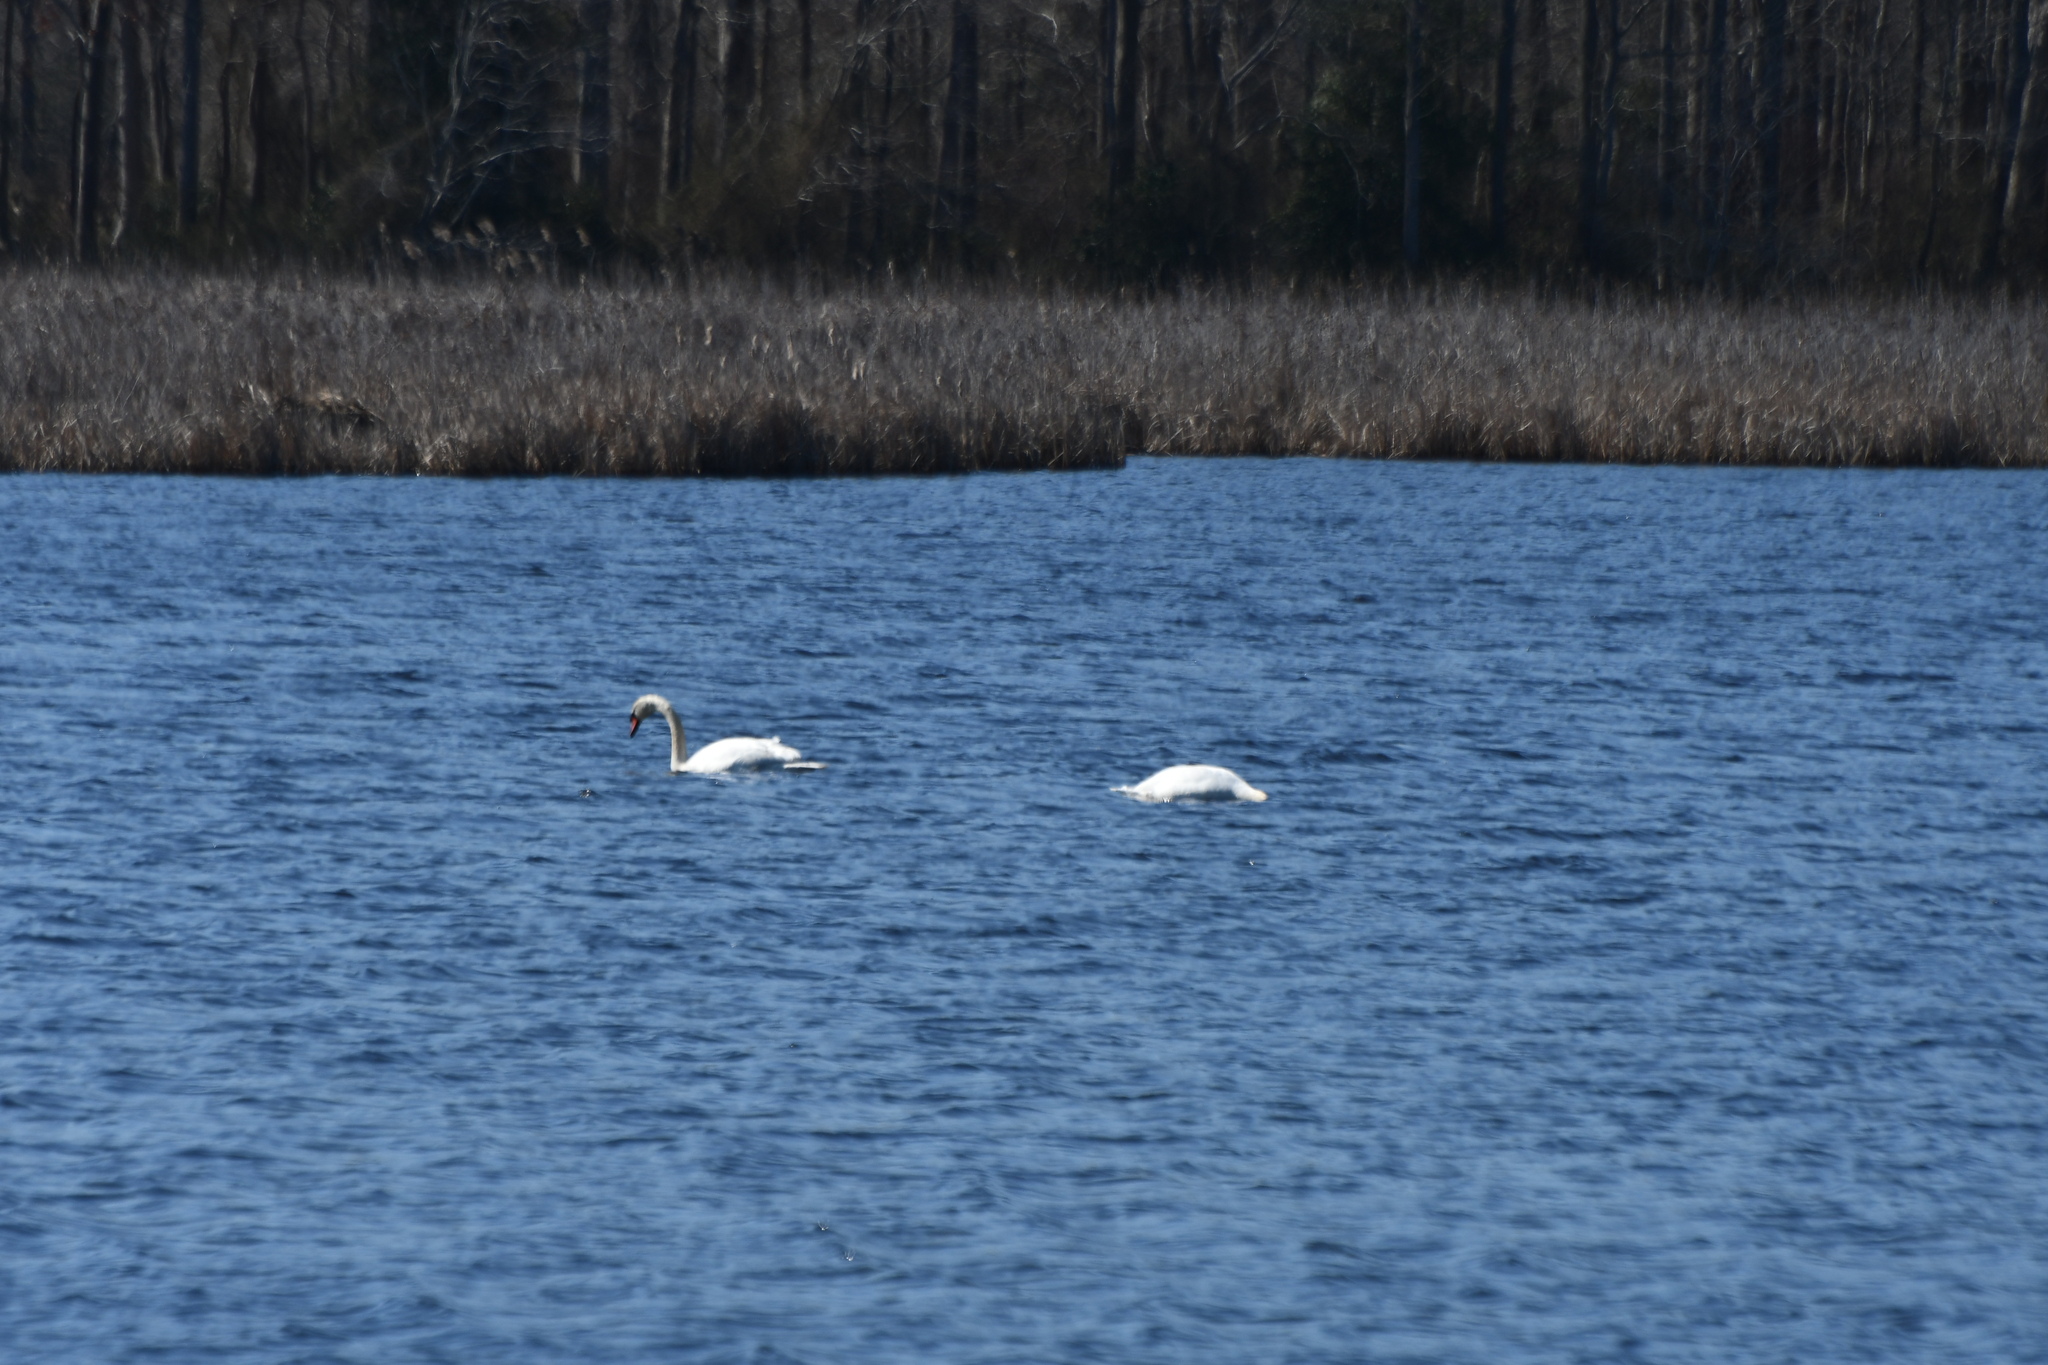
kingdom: Animalia
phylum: Chordata
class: Aves
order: Anseriformes
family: Anatidae
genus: Cygnus
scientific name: Cygnus olor
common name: Mute swan
